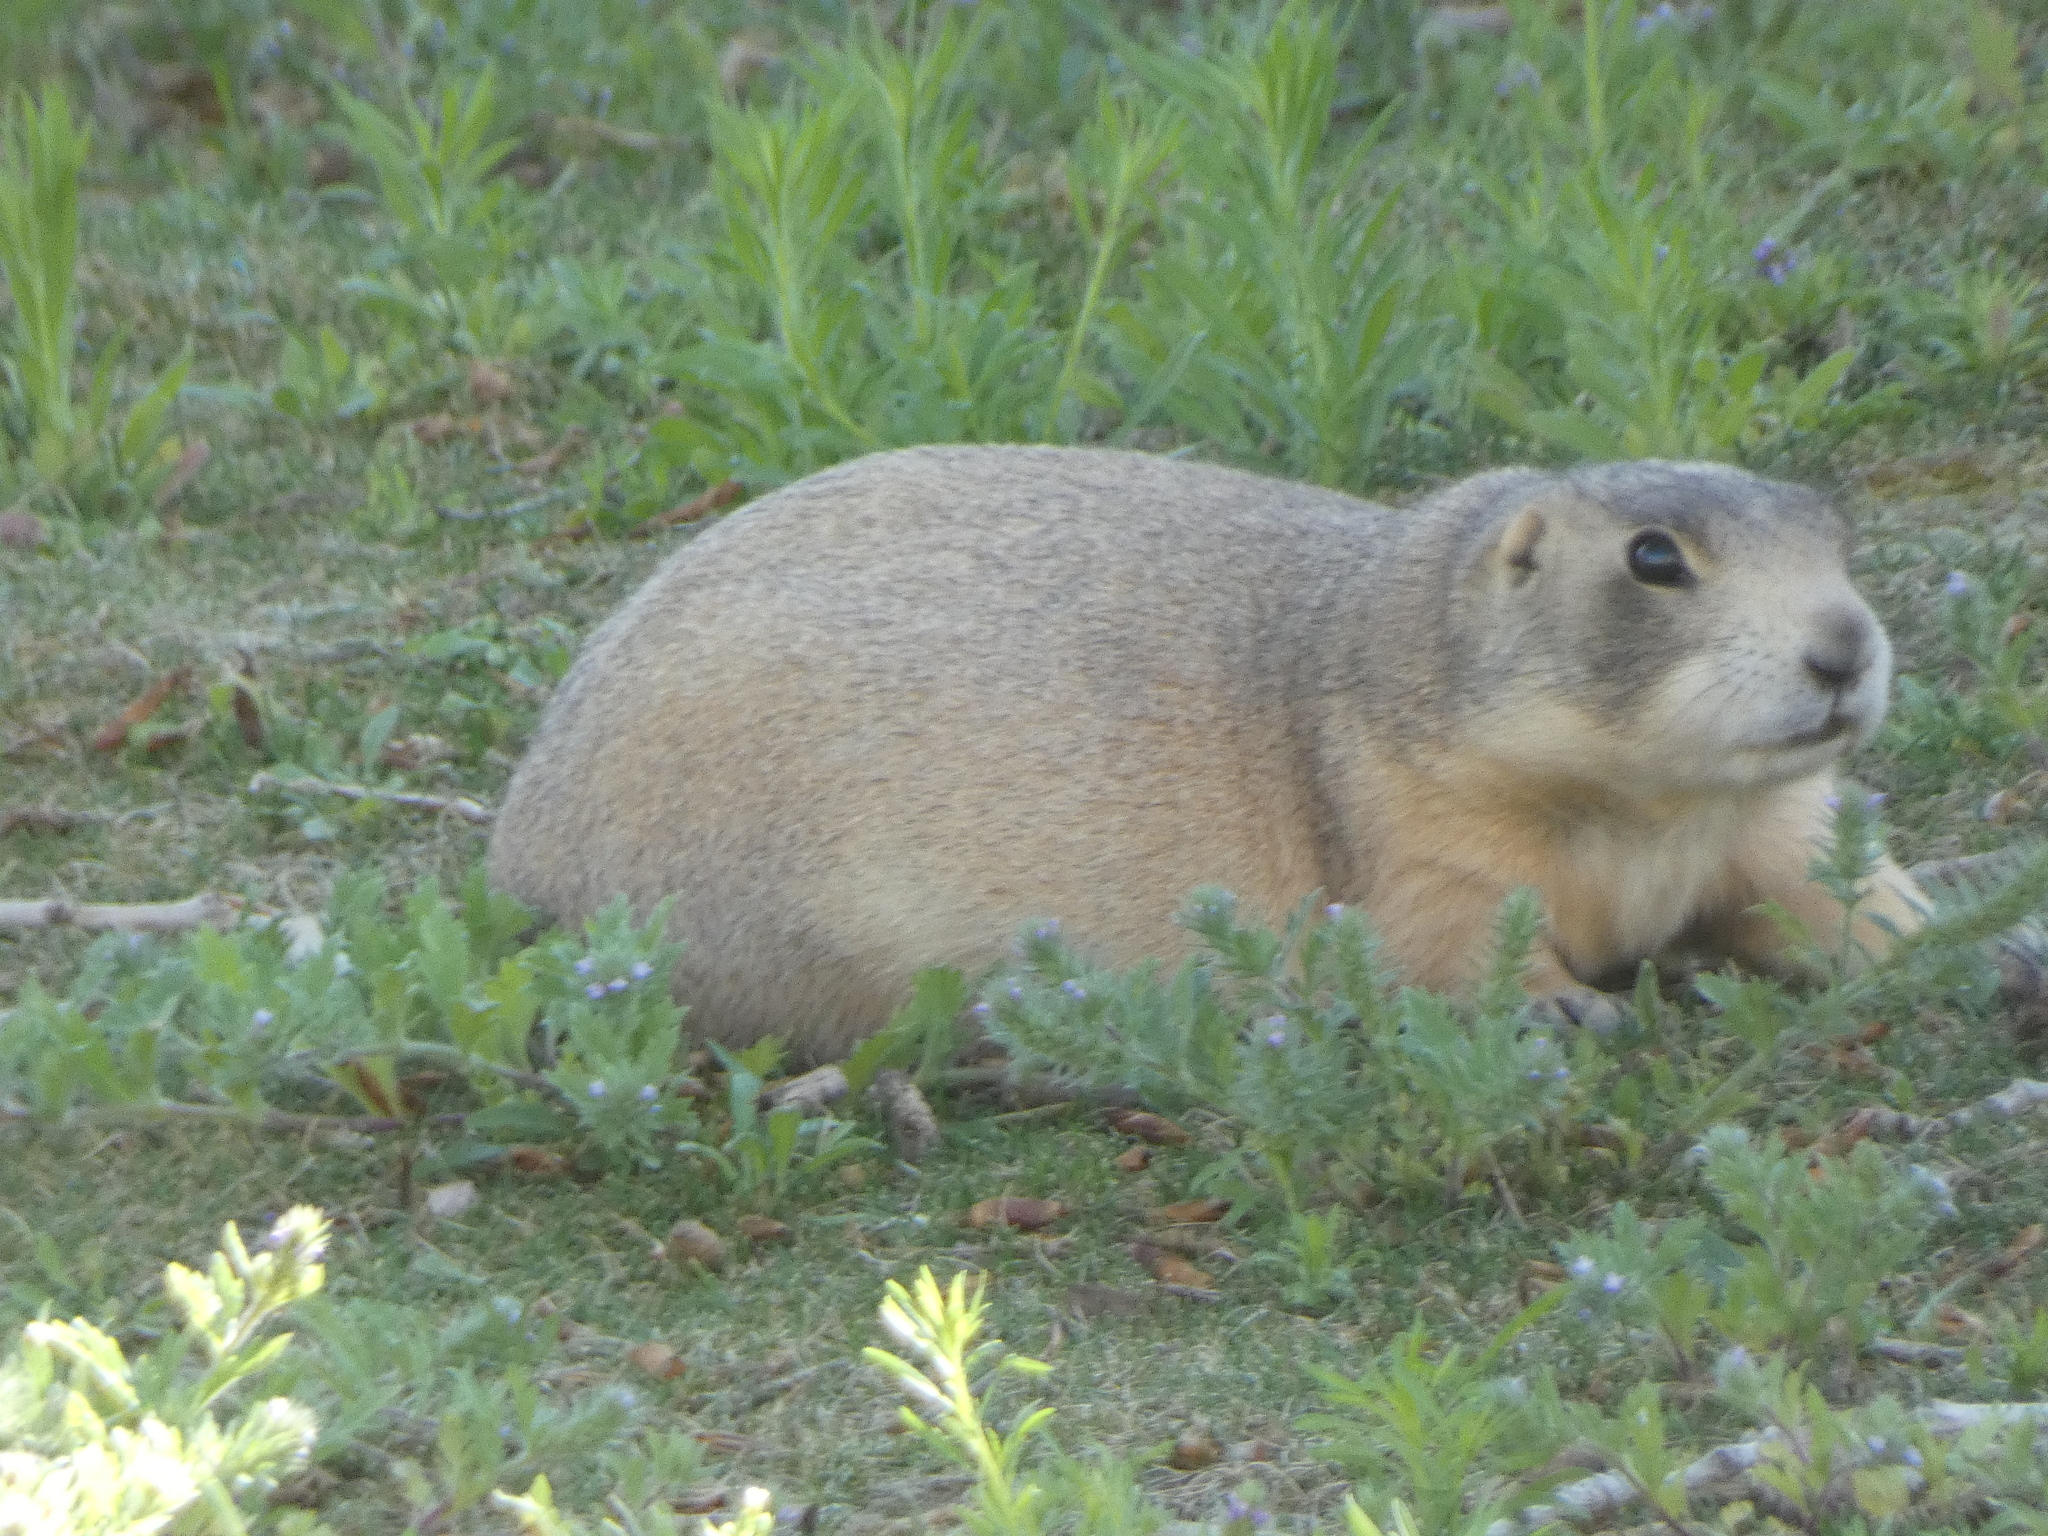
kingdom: Animalia
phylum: Chordata
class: Mammalia
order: Rodentia
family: Sciuridae
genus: Cynomys
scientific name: Cynomys leucurus
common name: White-tailed prairie dog
